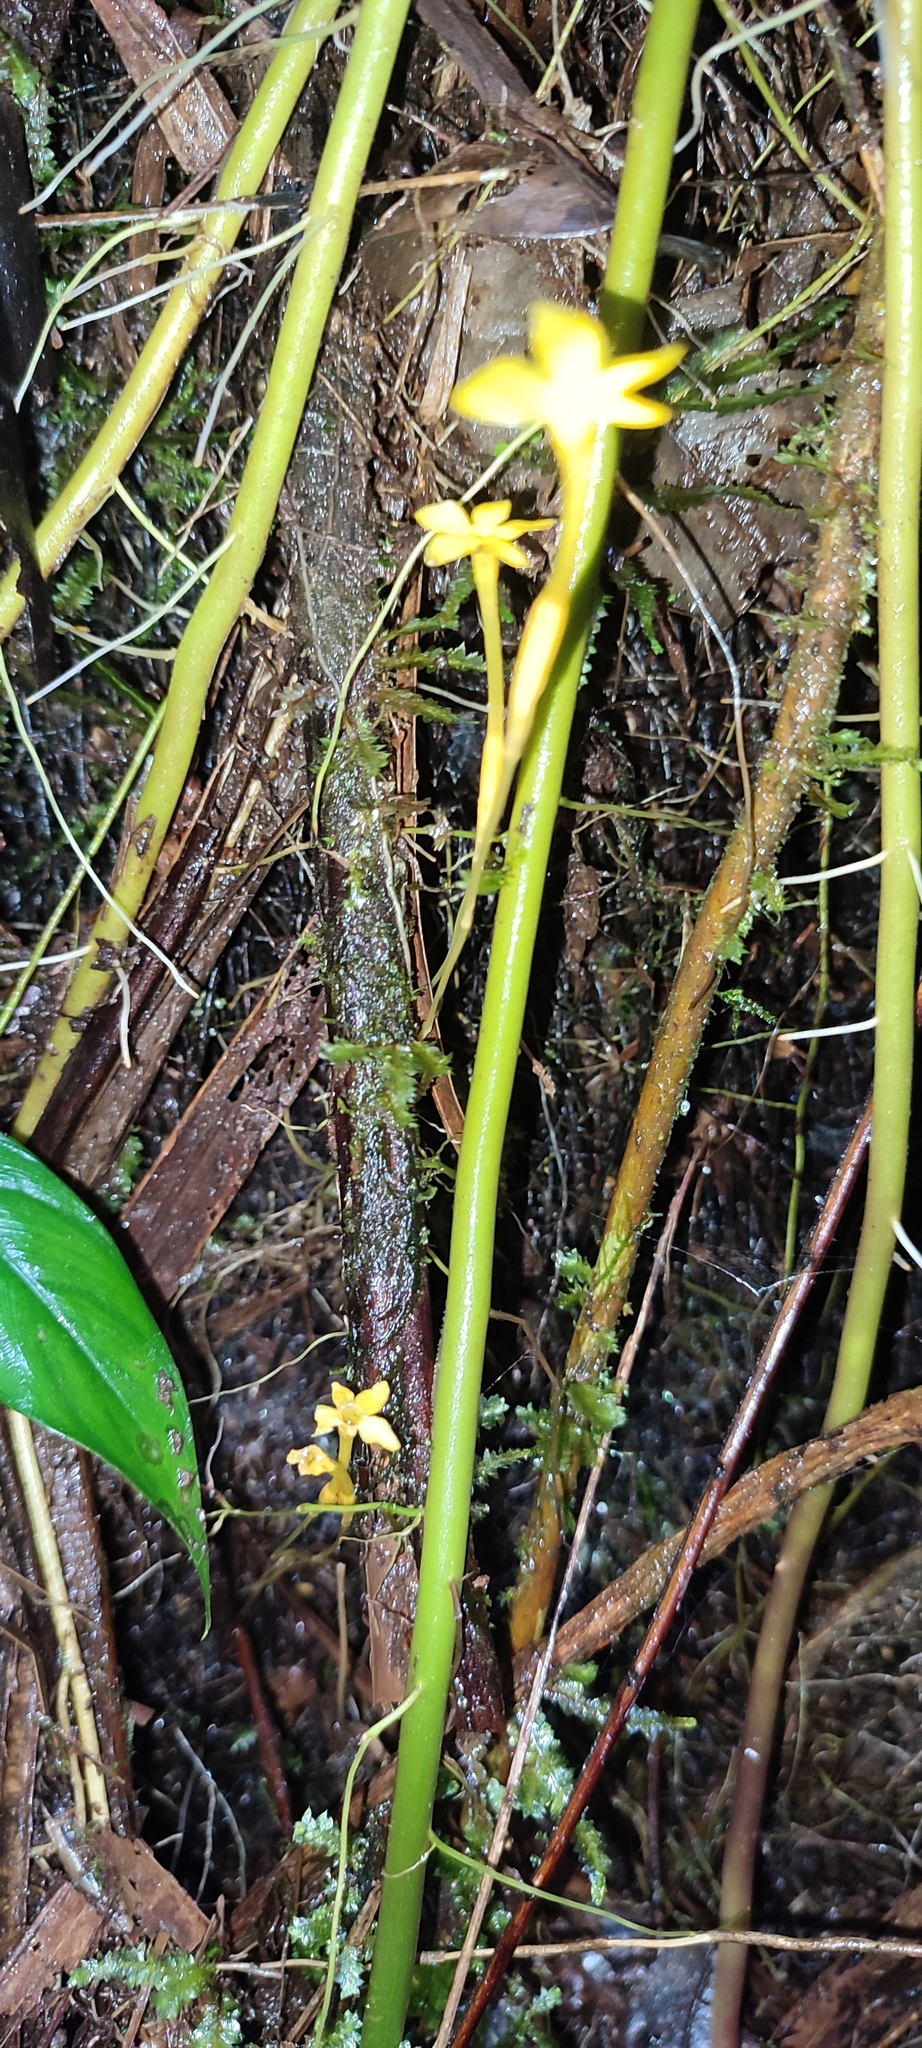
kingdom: Plantae
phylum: Tracheophyta
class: Magnoliopsida
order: Gentianales
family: Gentianaceae
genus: Voyria
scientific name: Voyria aphylla
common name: Leafless ghost plant
